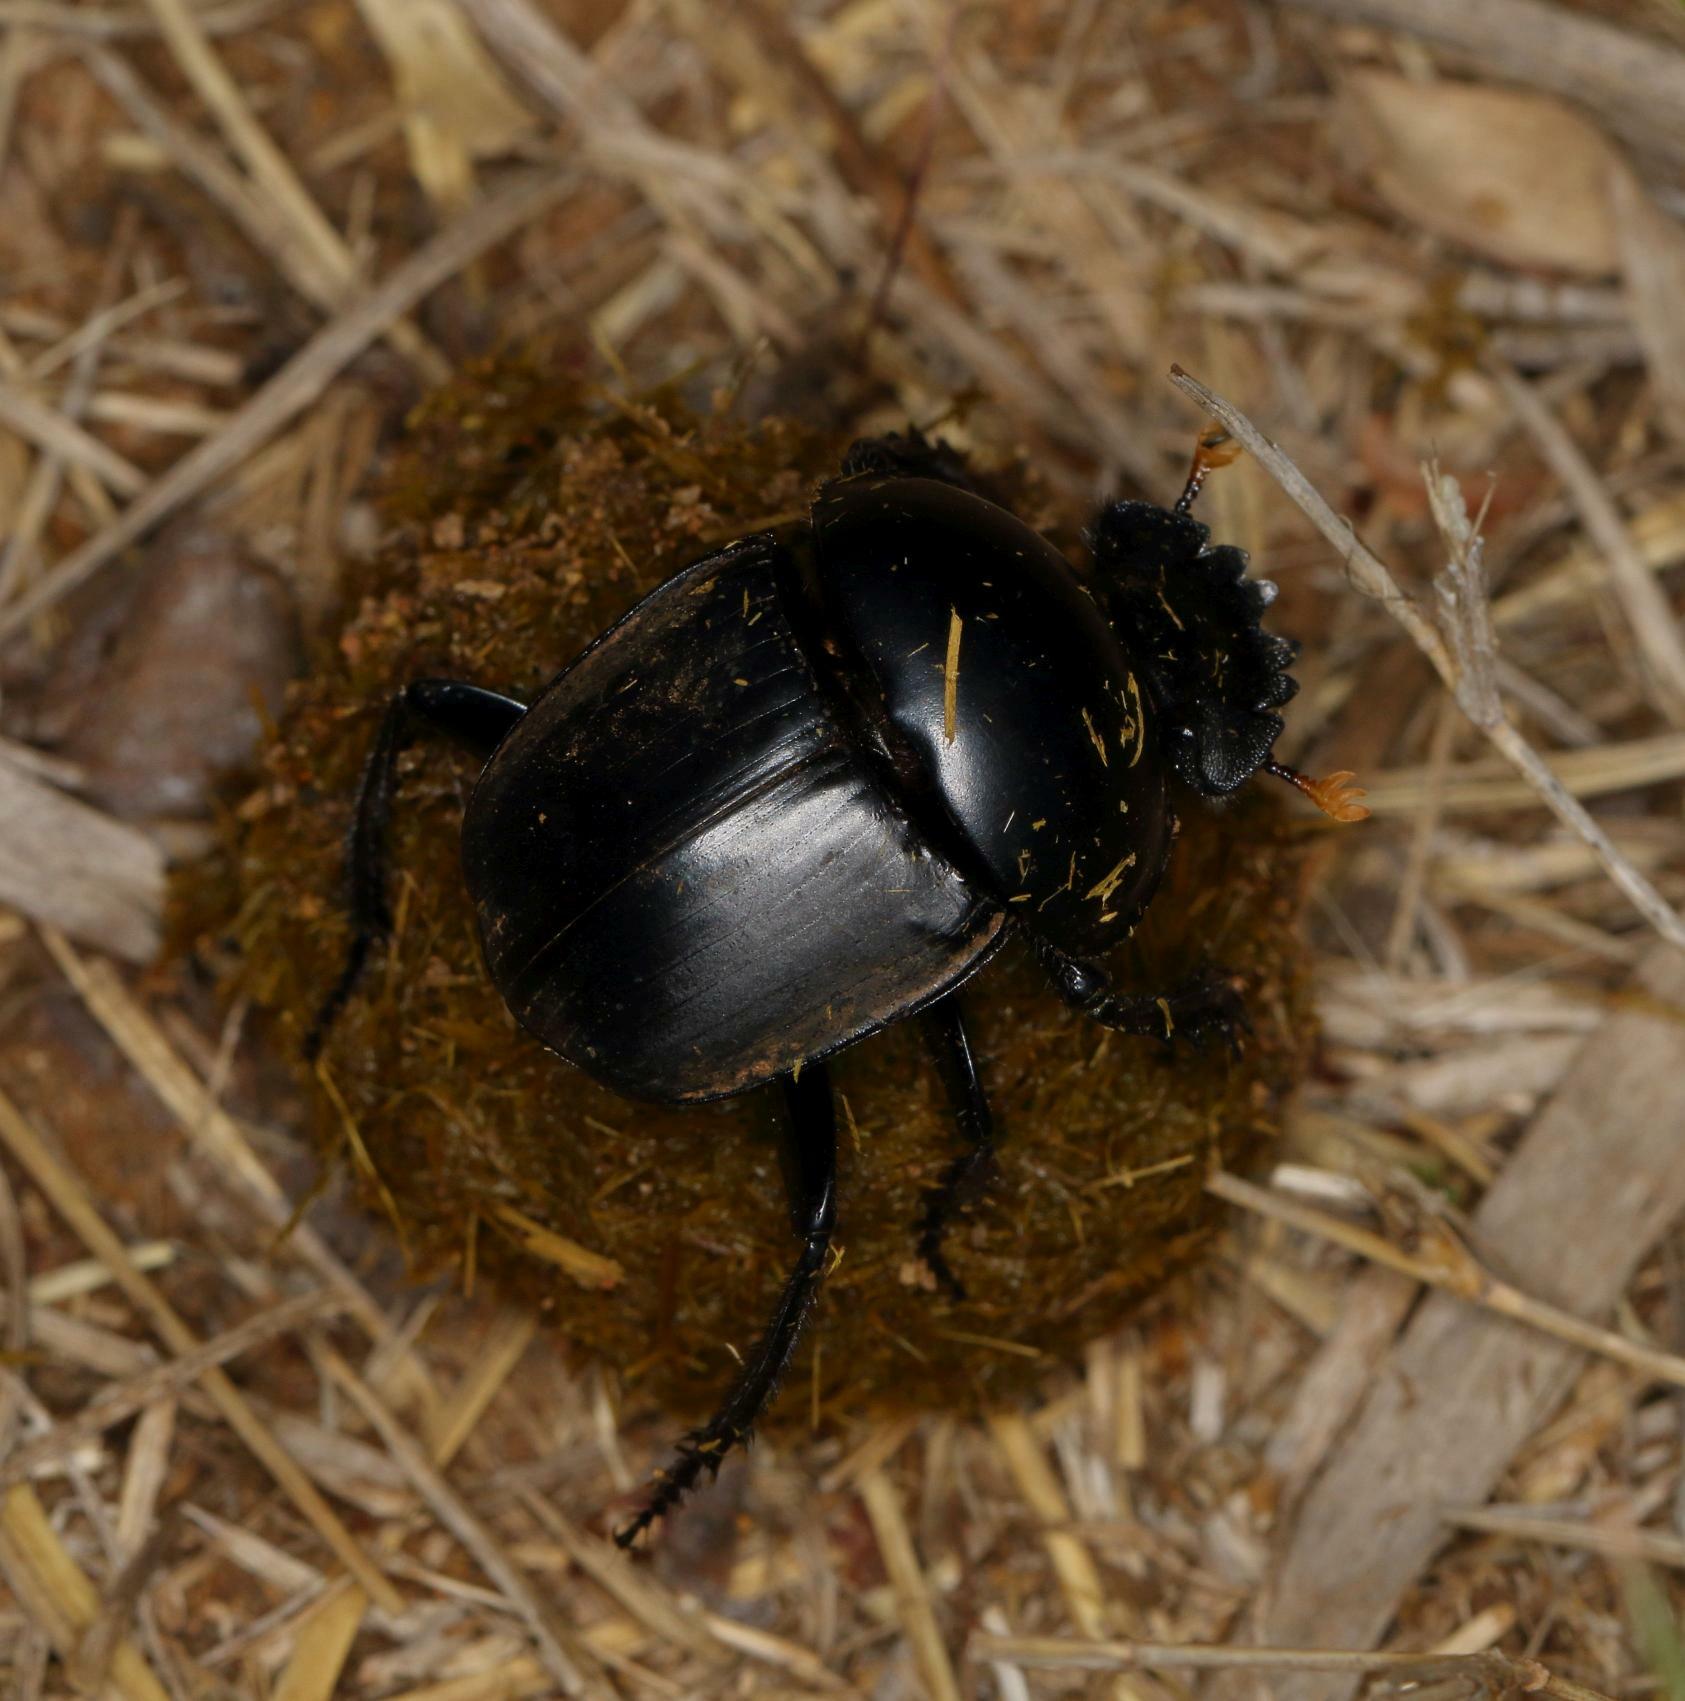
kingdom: Animalia
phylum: Arthropoda
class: Insecta
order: Coleoptera
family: Scarabaeidae
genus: Scarabaeus
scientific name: Scarabaeus rusticus
